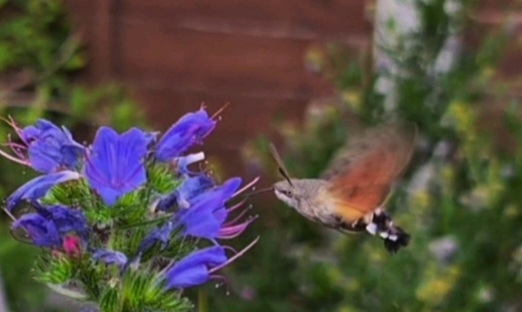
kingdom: Animalia
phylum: Arthropoda
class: Insecta
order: Lepidoptera
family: Sphingidae
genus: Macroglossum
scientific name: Macroglossum stellatarum
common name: Humming-bird hawk-moth
